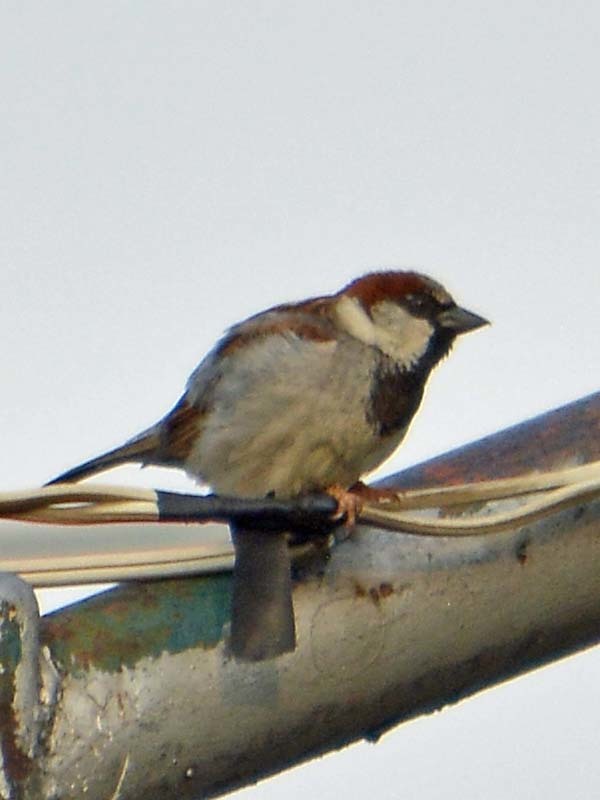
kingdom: Animalia
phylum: Chordata
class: Aves
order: Passeriformes
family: Passeridae
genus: Passer
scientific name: Passer domesticus
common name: House sparrow
